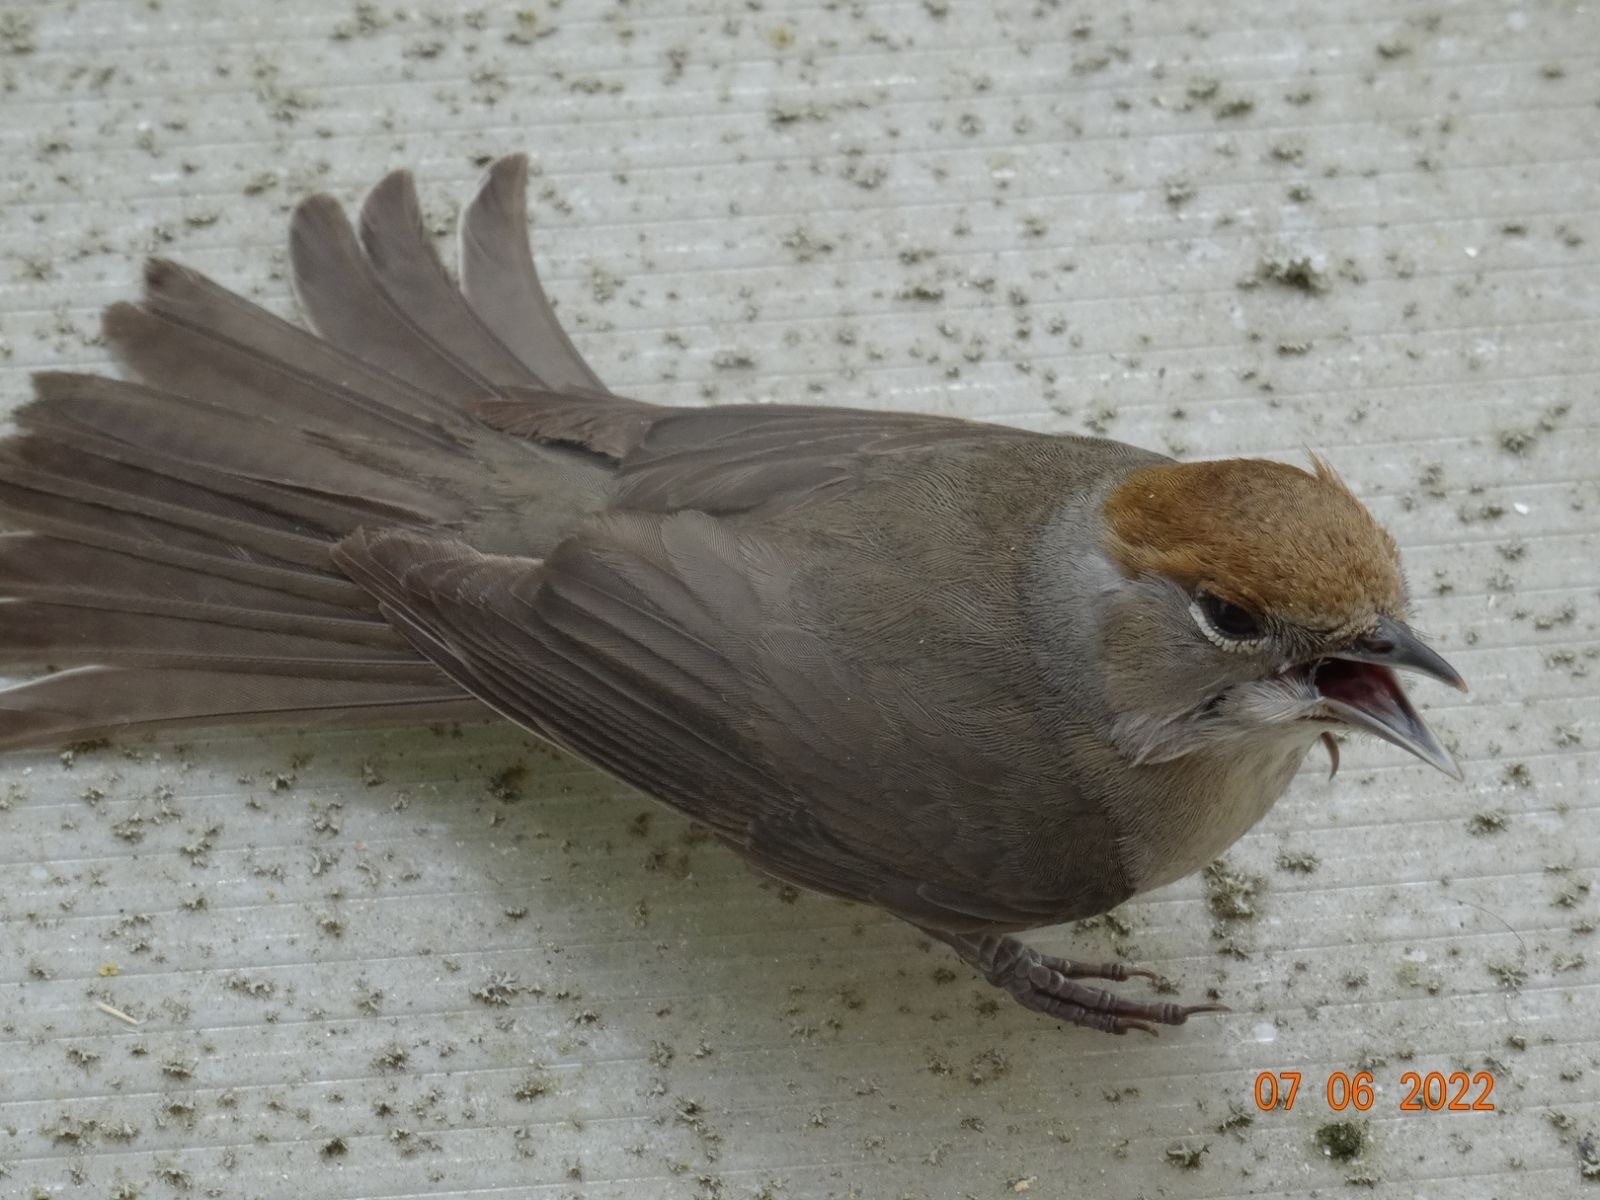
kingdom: Animalia
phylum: Chordata
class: Aves
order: Passeriformes
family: Sylviidae
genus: Sylvia
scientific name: Sylvia atricapilla
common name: Eurasian blackcap
